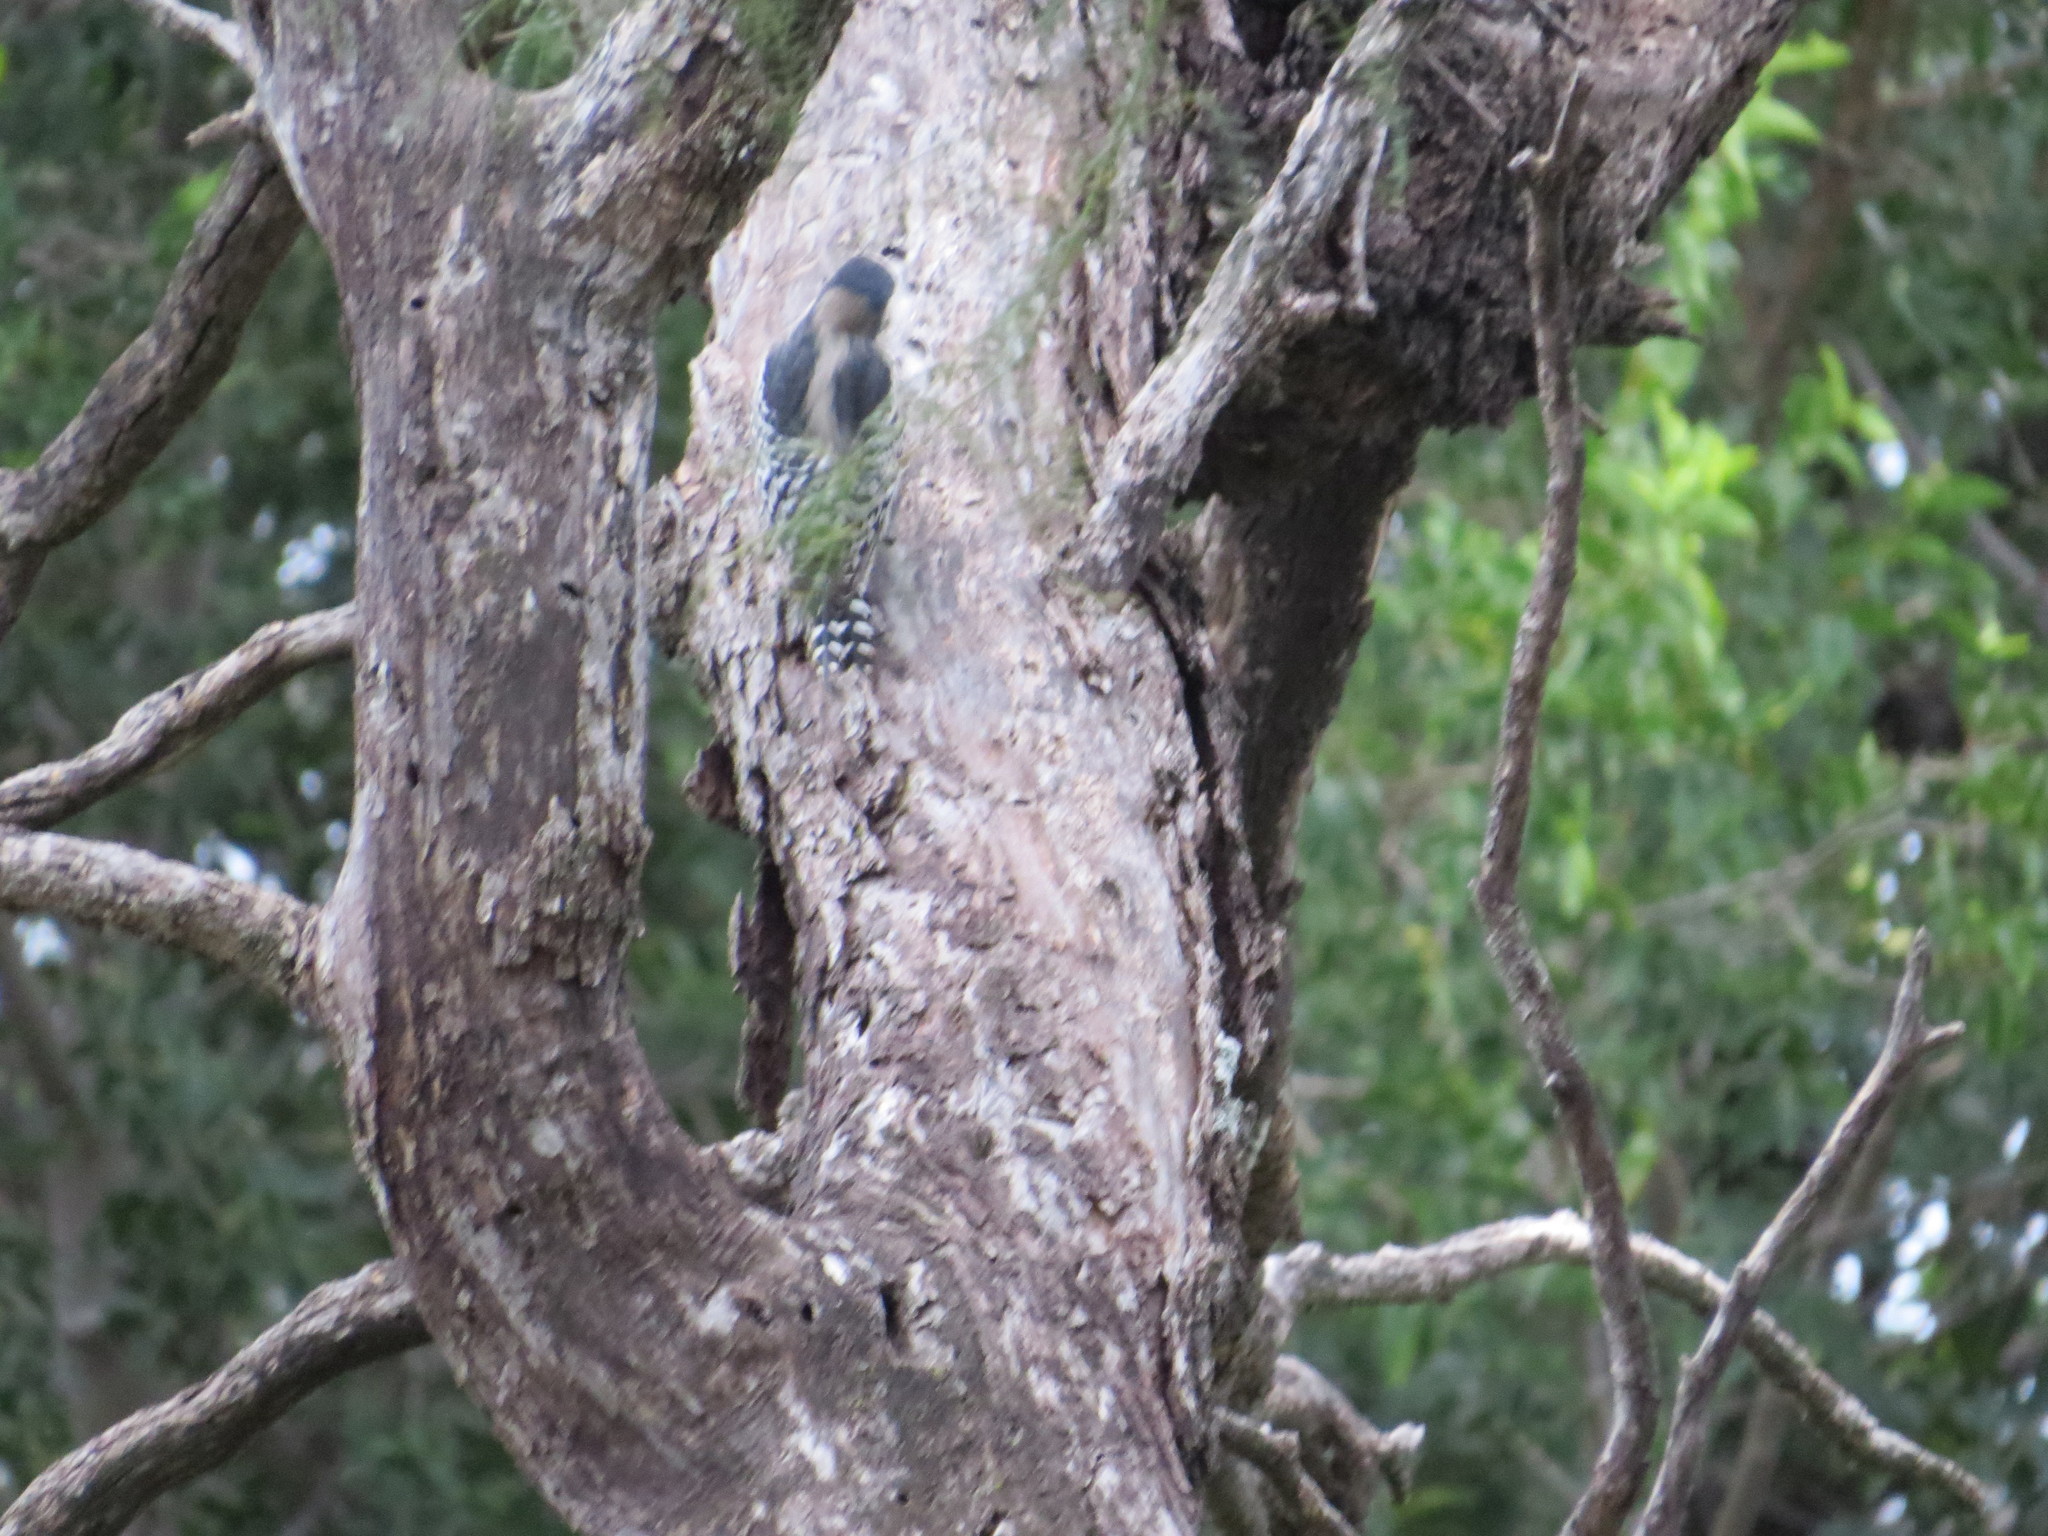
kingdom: Animalia
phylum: Chordata
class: Aves
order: Piciformes
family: Picidae
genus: Melanerpes
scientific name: Melanerpes cactorum
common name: White-fronted woodpecker
